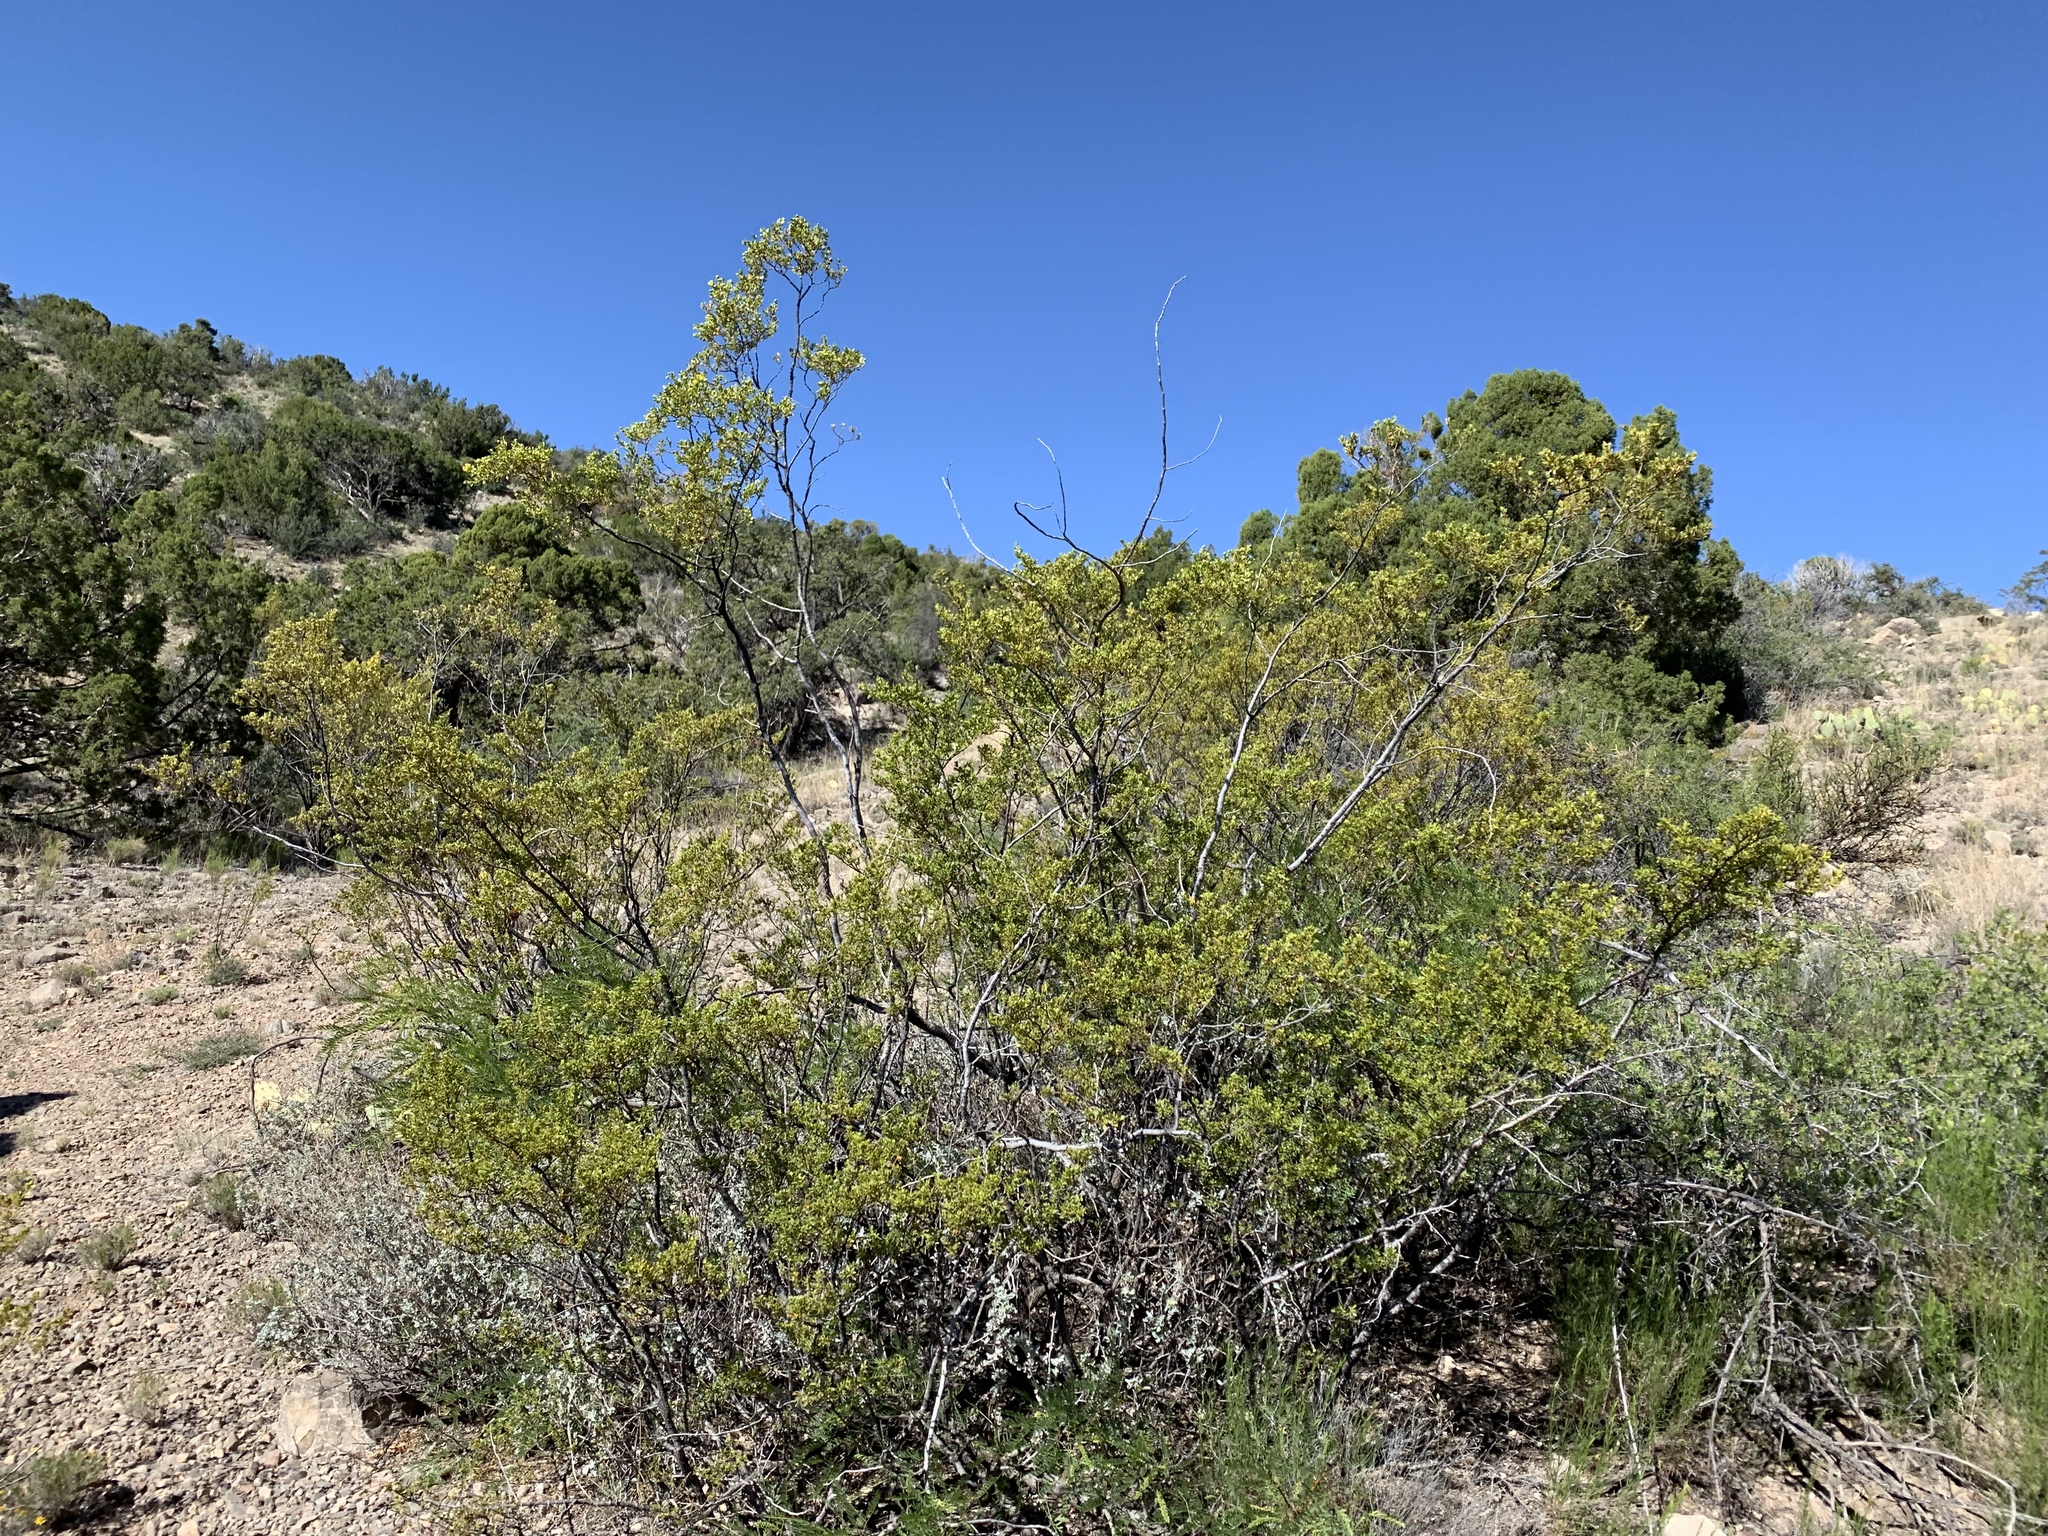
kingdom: Plantae
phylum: Tracheophyta
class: Magnoliopsida
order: Zygophyllales
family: Zygophyllaceae
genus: Larrea
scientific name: Larrea tridentata
